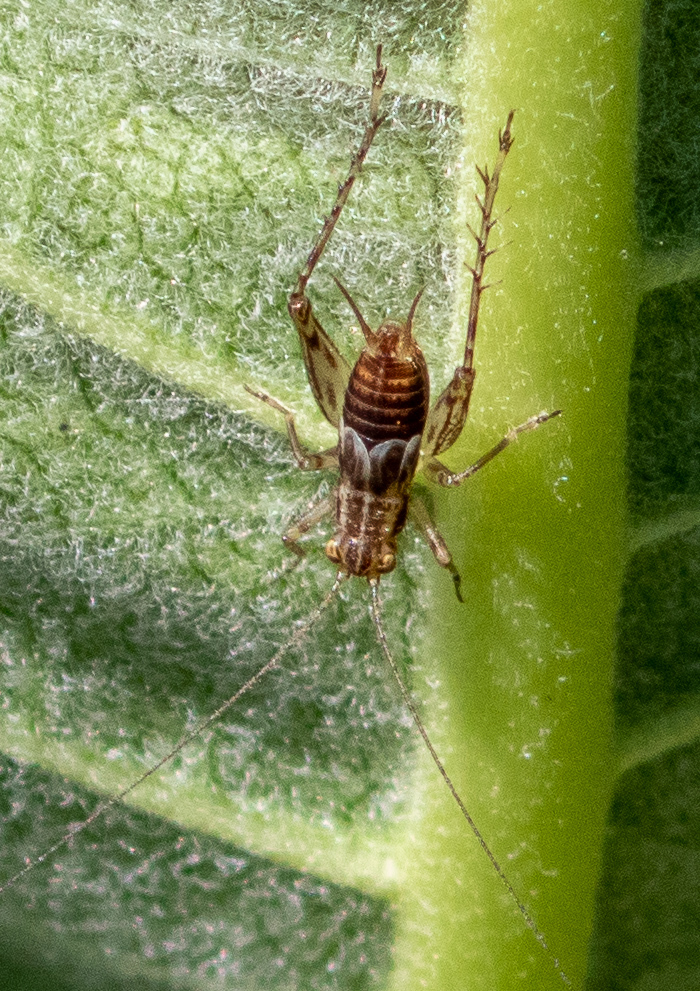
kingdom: Animalia
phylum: Arthropoda
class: Insecta
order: Orthoptera
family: Trigonidiidae
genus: Anaxipha
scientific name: Anaxipha exigua
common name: Say's bush cricket
